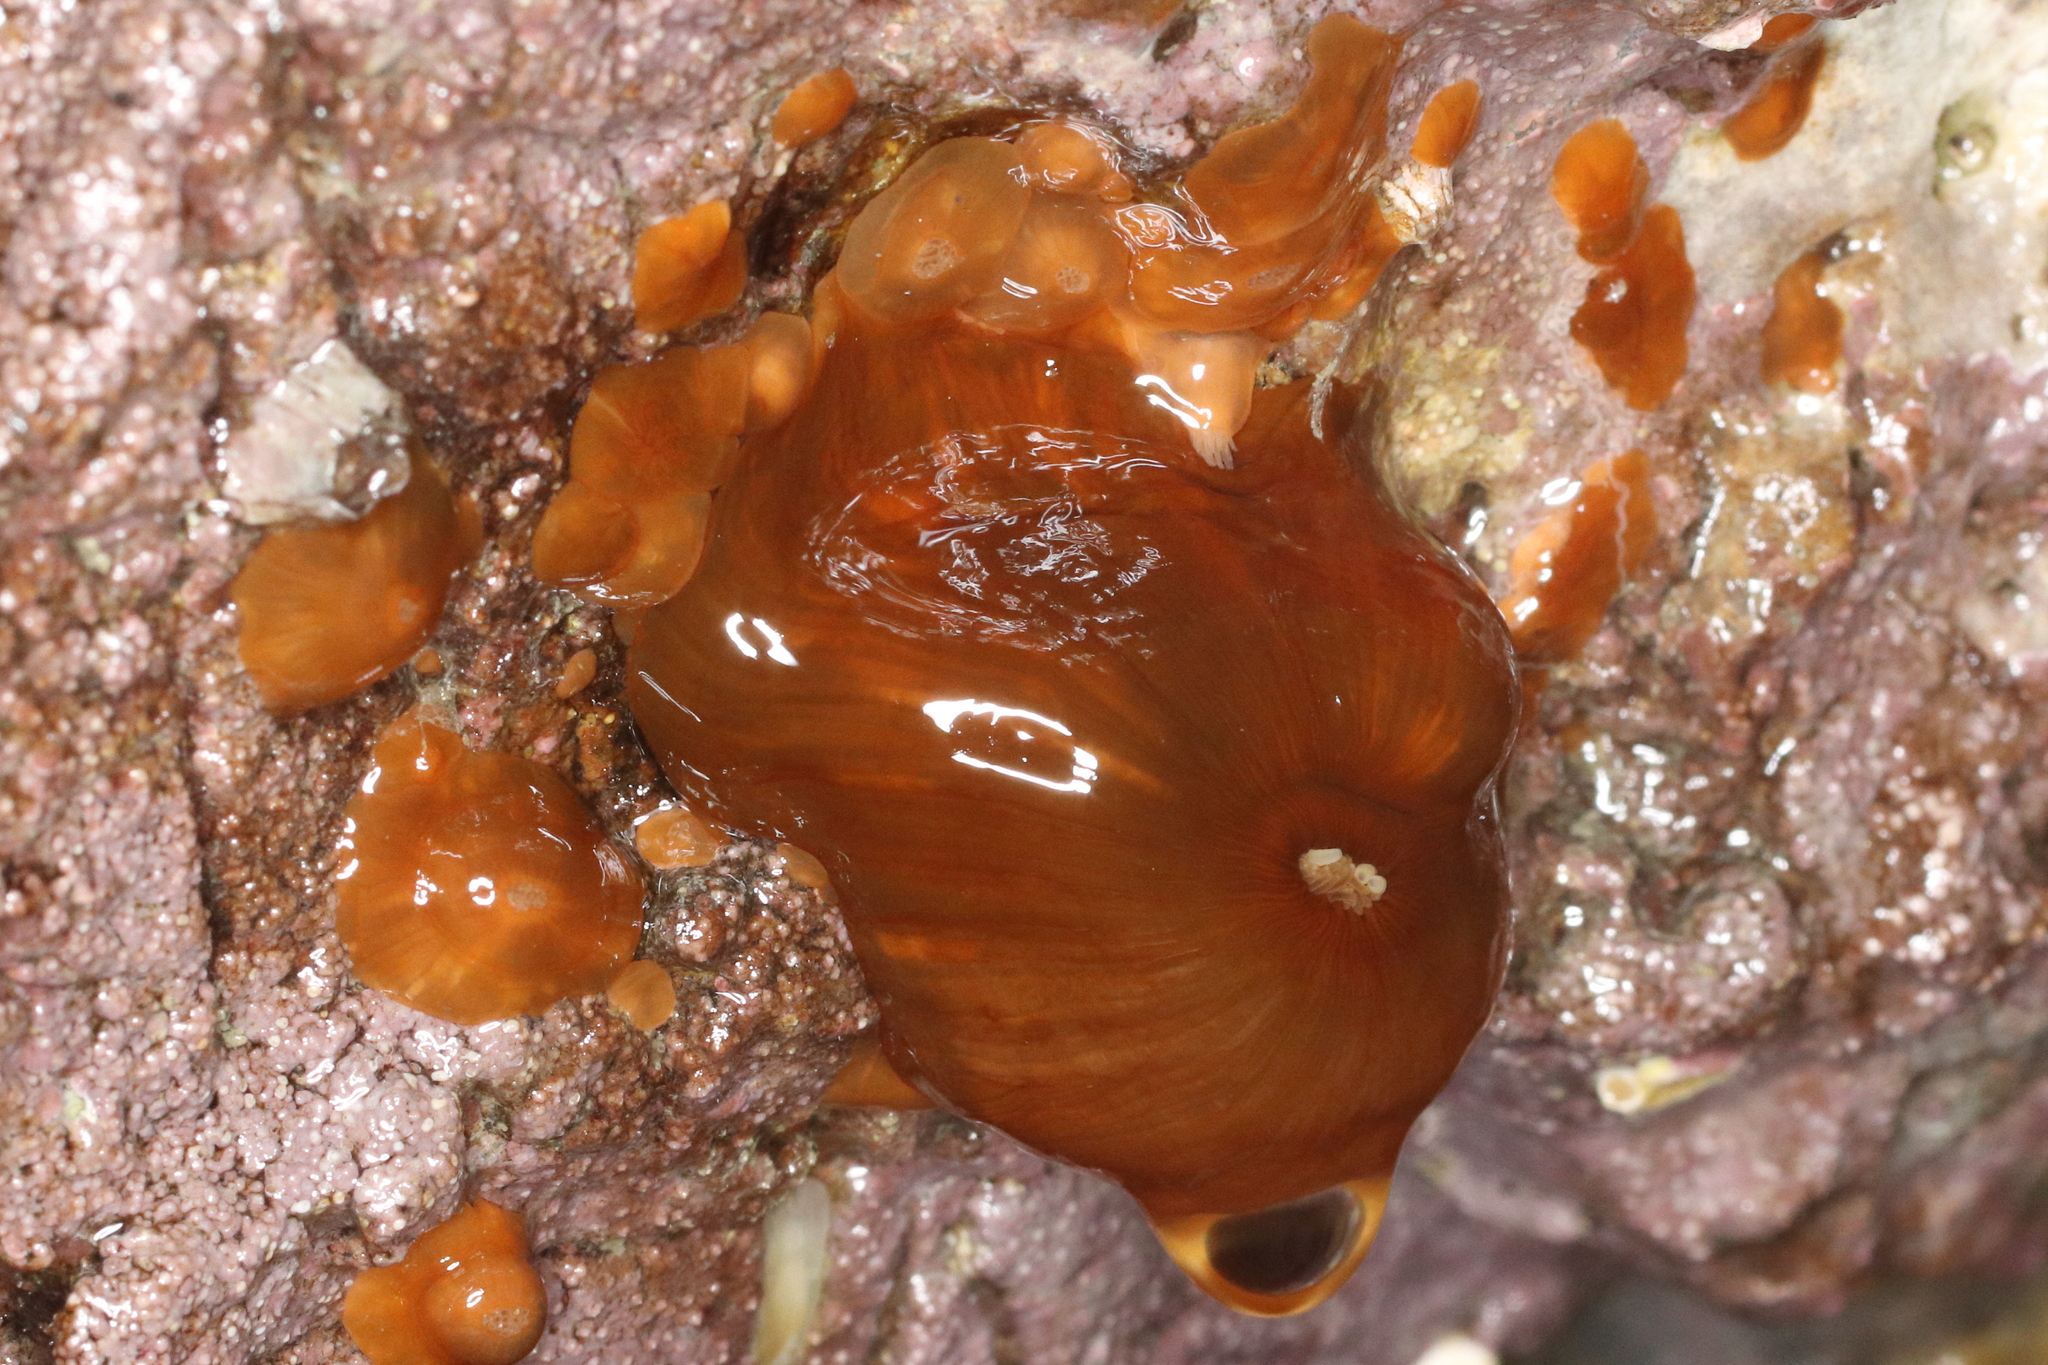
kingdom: Animalia
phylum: Cnidaria
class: Anthozoa
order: Actiniaria
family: Metridiidae
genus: Metridium
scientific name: Metridium senile
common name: Clonal plumose anemone
